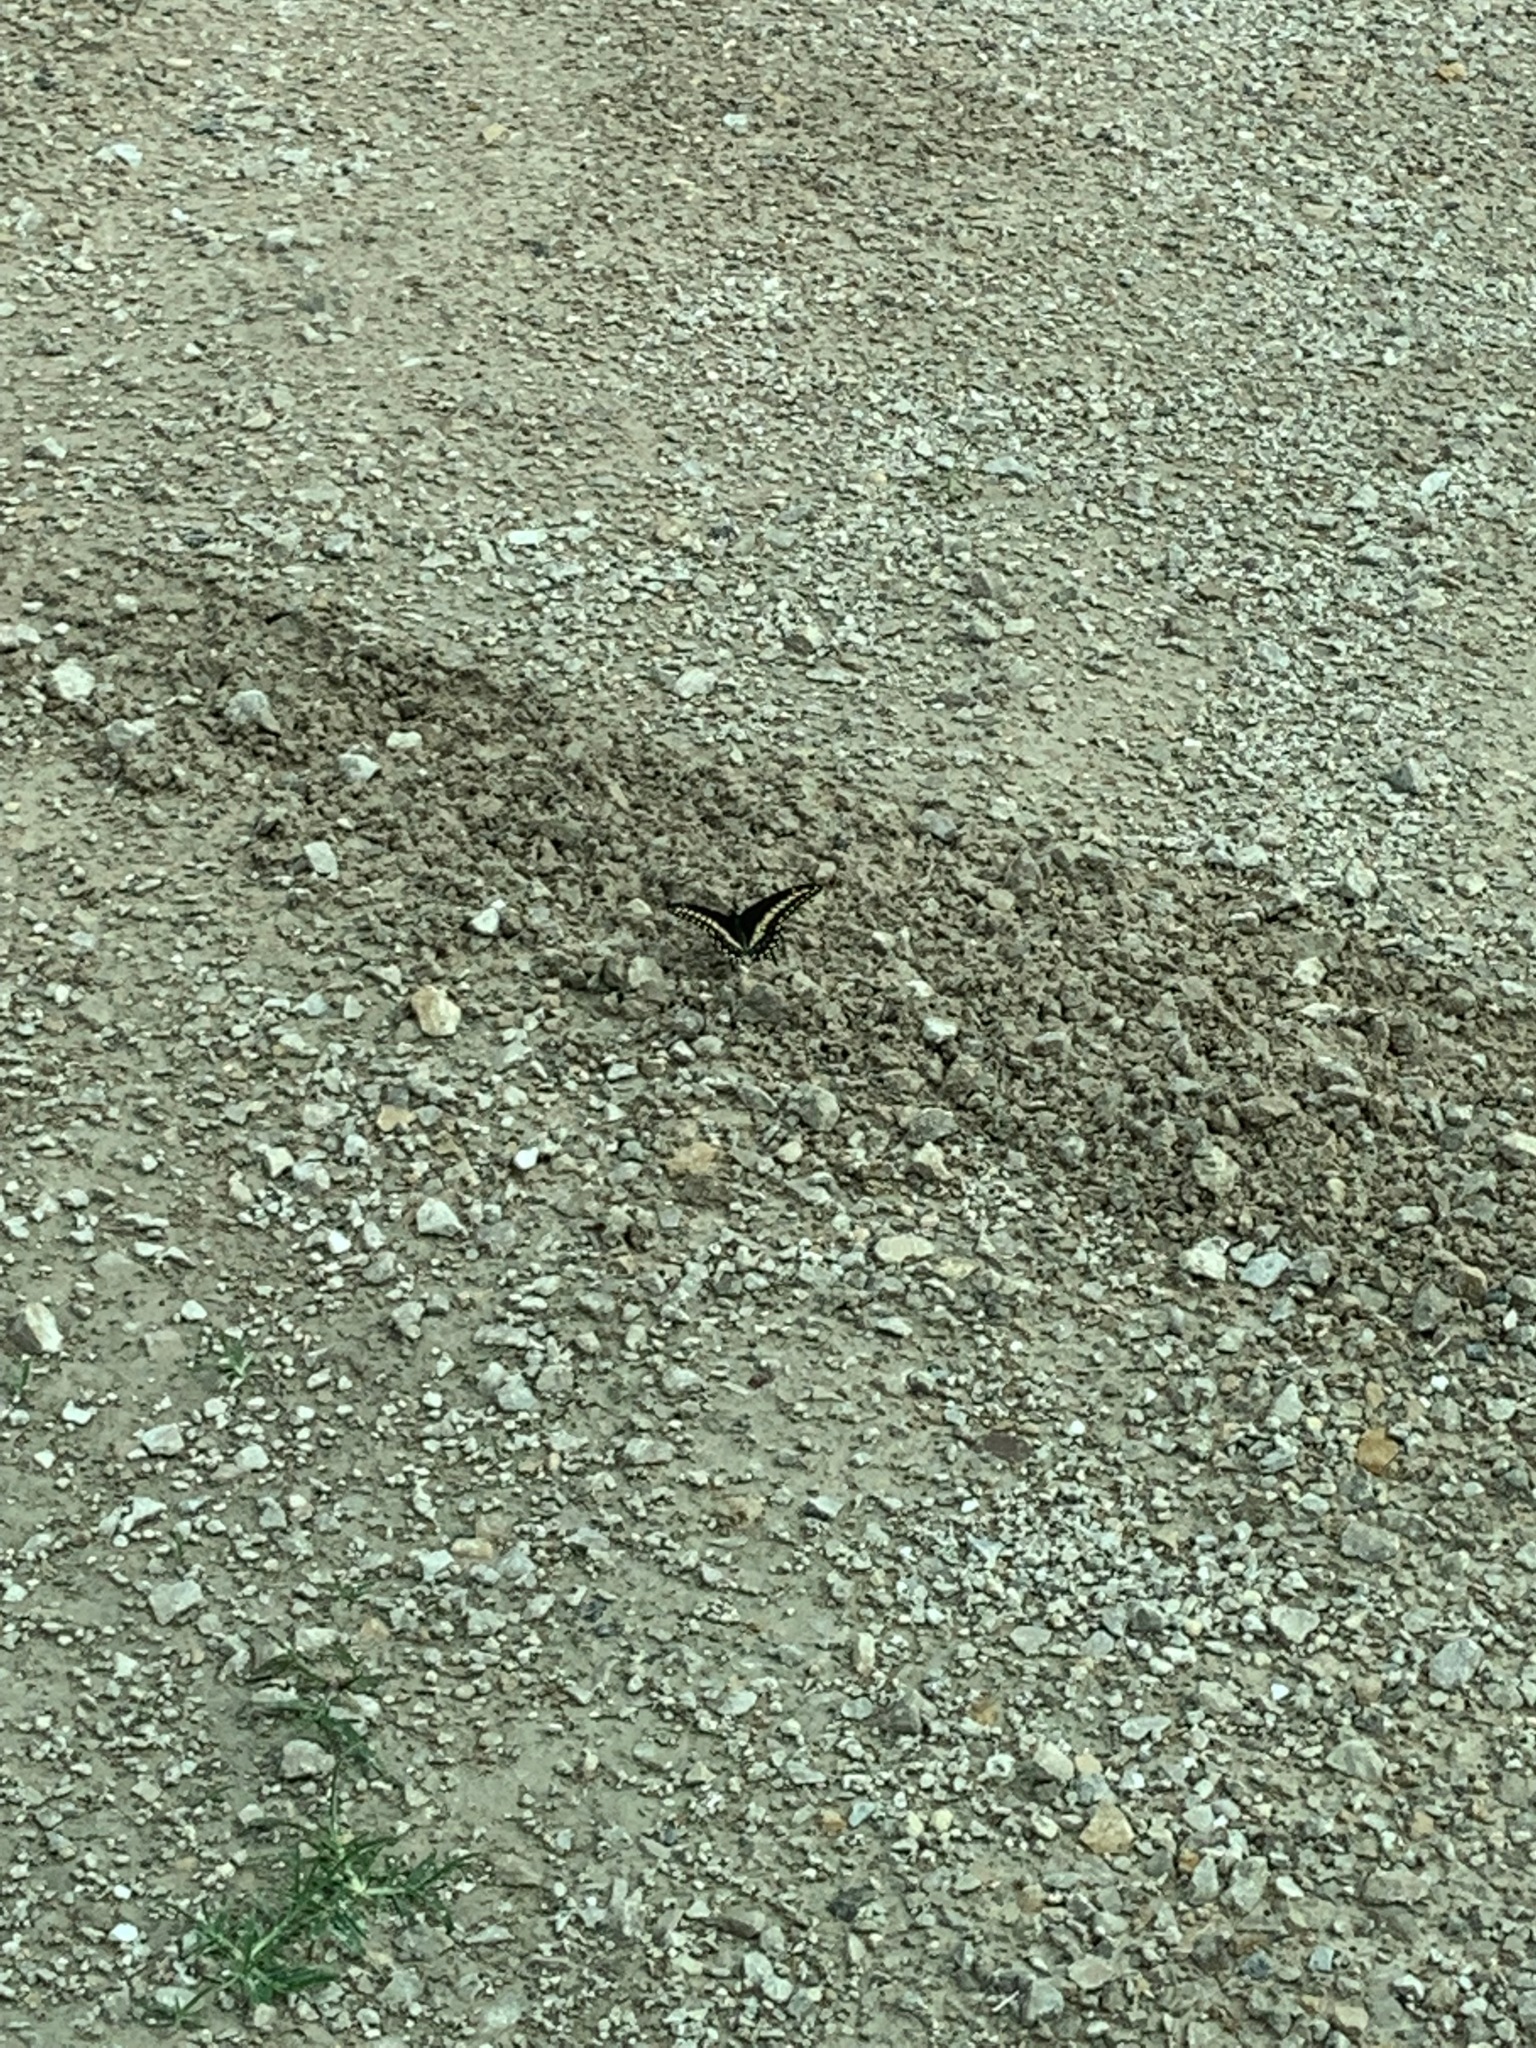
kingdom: Animalia
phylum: Arthropoda
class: Insecta
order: Lepidoptera
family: Papilionidae
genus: Papilio
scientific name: Papilio polyxenes
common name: Black swallowtail
